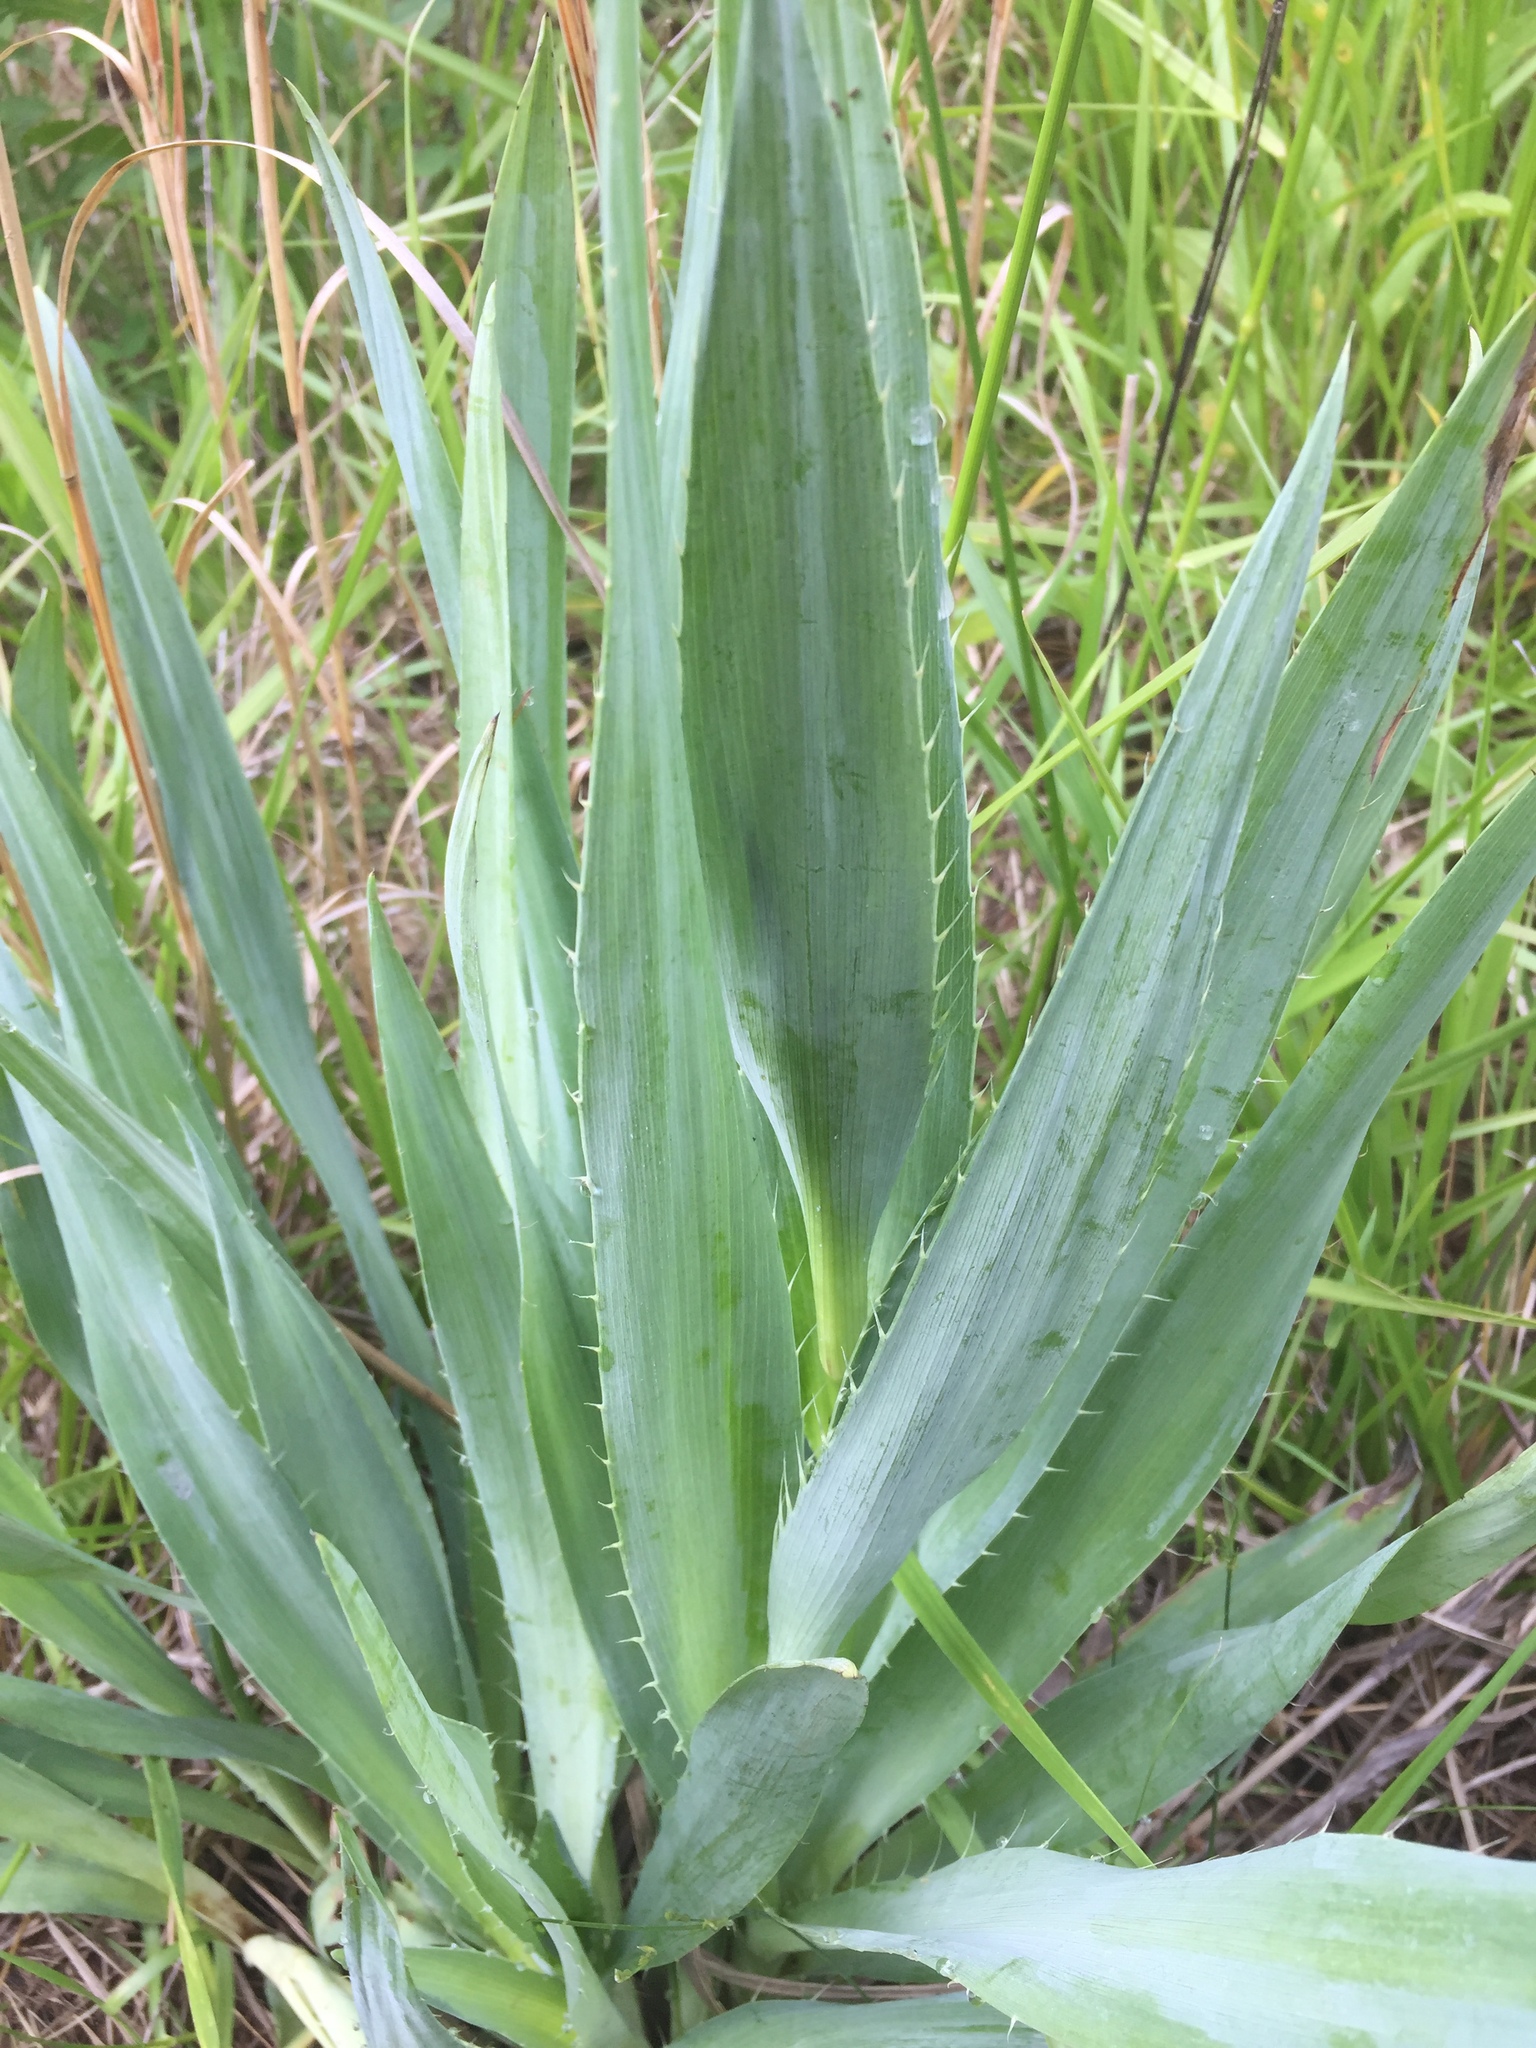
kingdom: Plantae
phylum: Tracheophyta
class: Magnoliopsida
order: Apiales
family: Apiaceae
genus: Eryngium
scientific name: Eryngium yuccifolium
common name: Button eryngo
